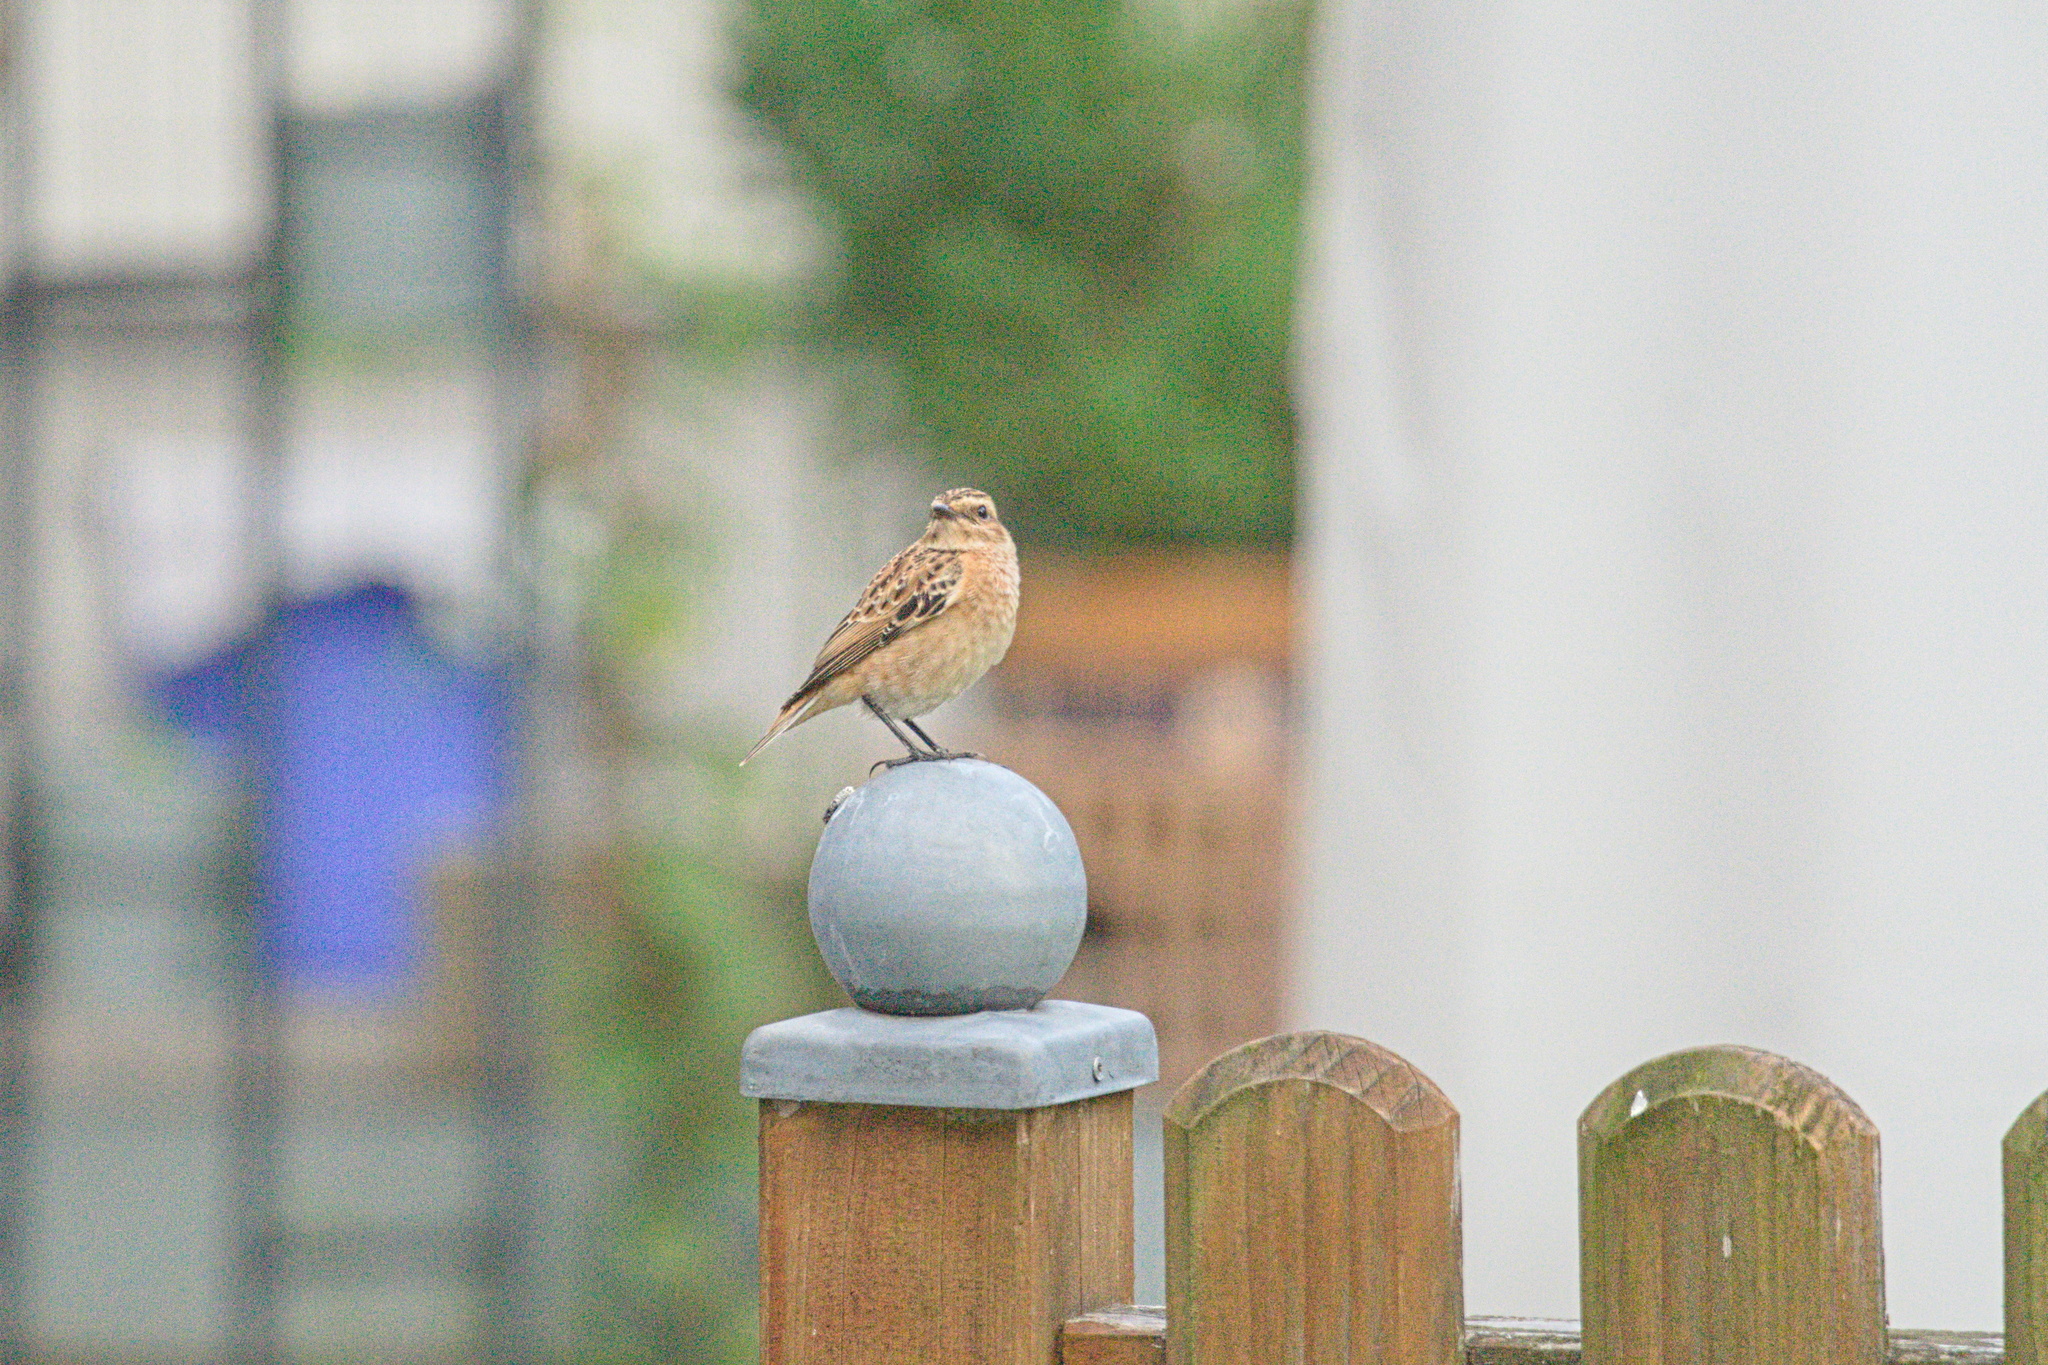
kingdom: Animalia
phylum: Chordata
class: Aves
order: Passeriformes
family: Muscicapidae
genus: Saxicola
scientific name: Saxicola rubetra
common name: Whinchat
